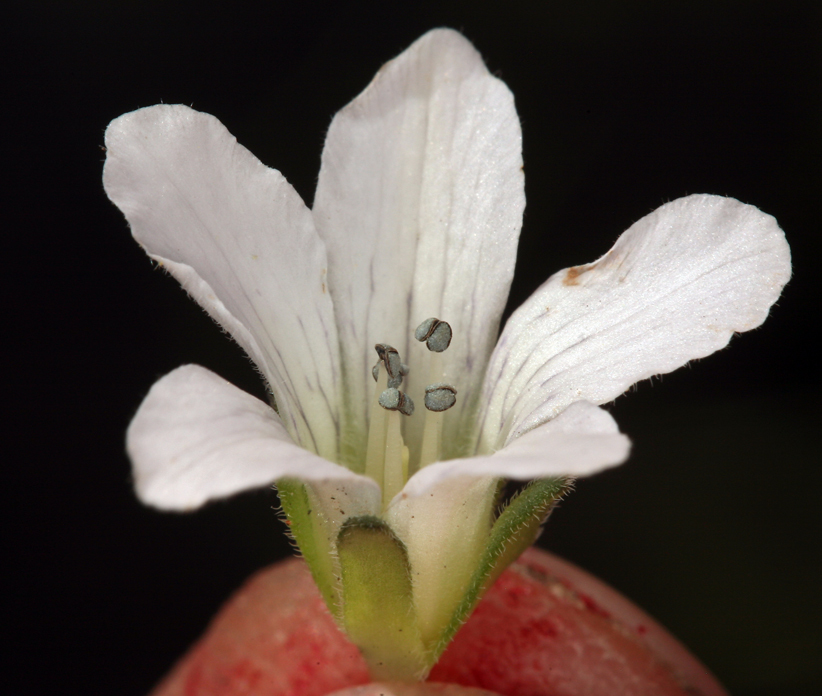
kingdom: Plantae
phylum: Tracheophyta
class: Magnoliopsida
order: Boraginales
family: Hydrophyllaceae
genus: Hesperochiron
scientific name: Hesperochiron californicus
